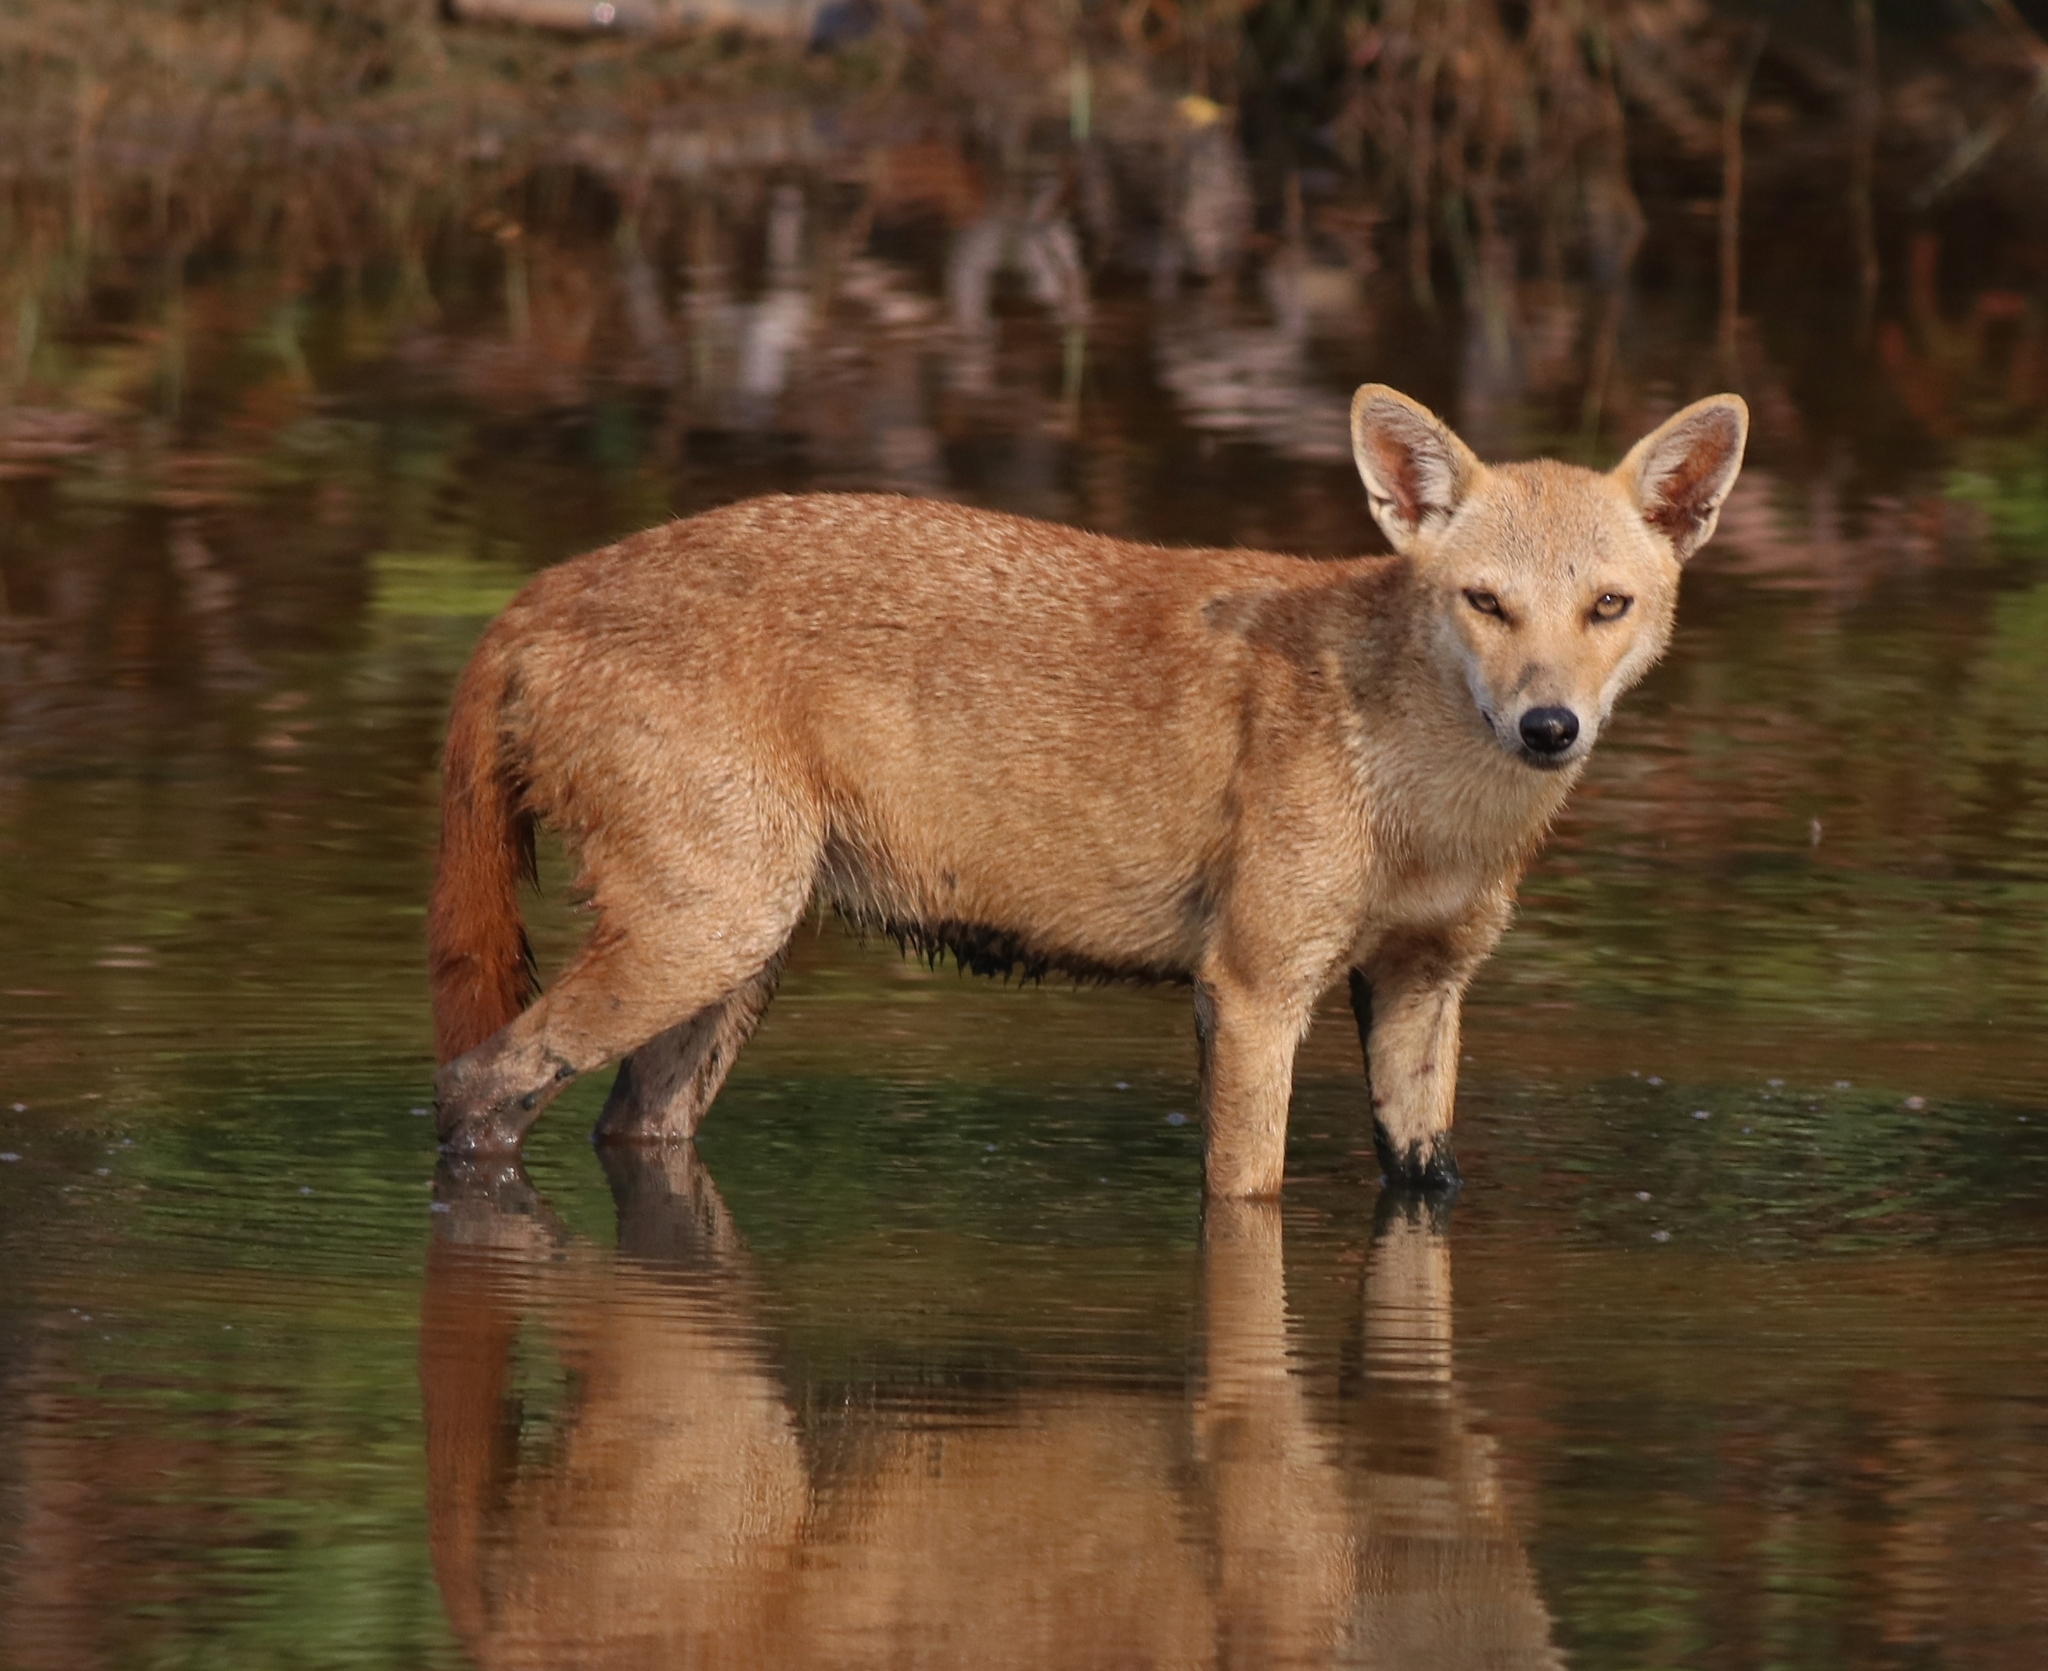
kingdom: Animalia
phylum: Chordata
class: Mammalia
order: Carnivora
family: Canidae
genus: Canis
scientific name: Canis aureus
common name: Golden jackal
